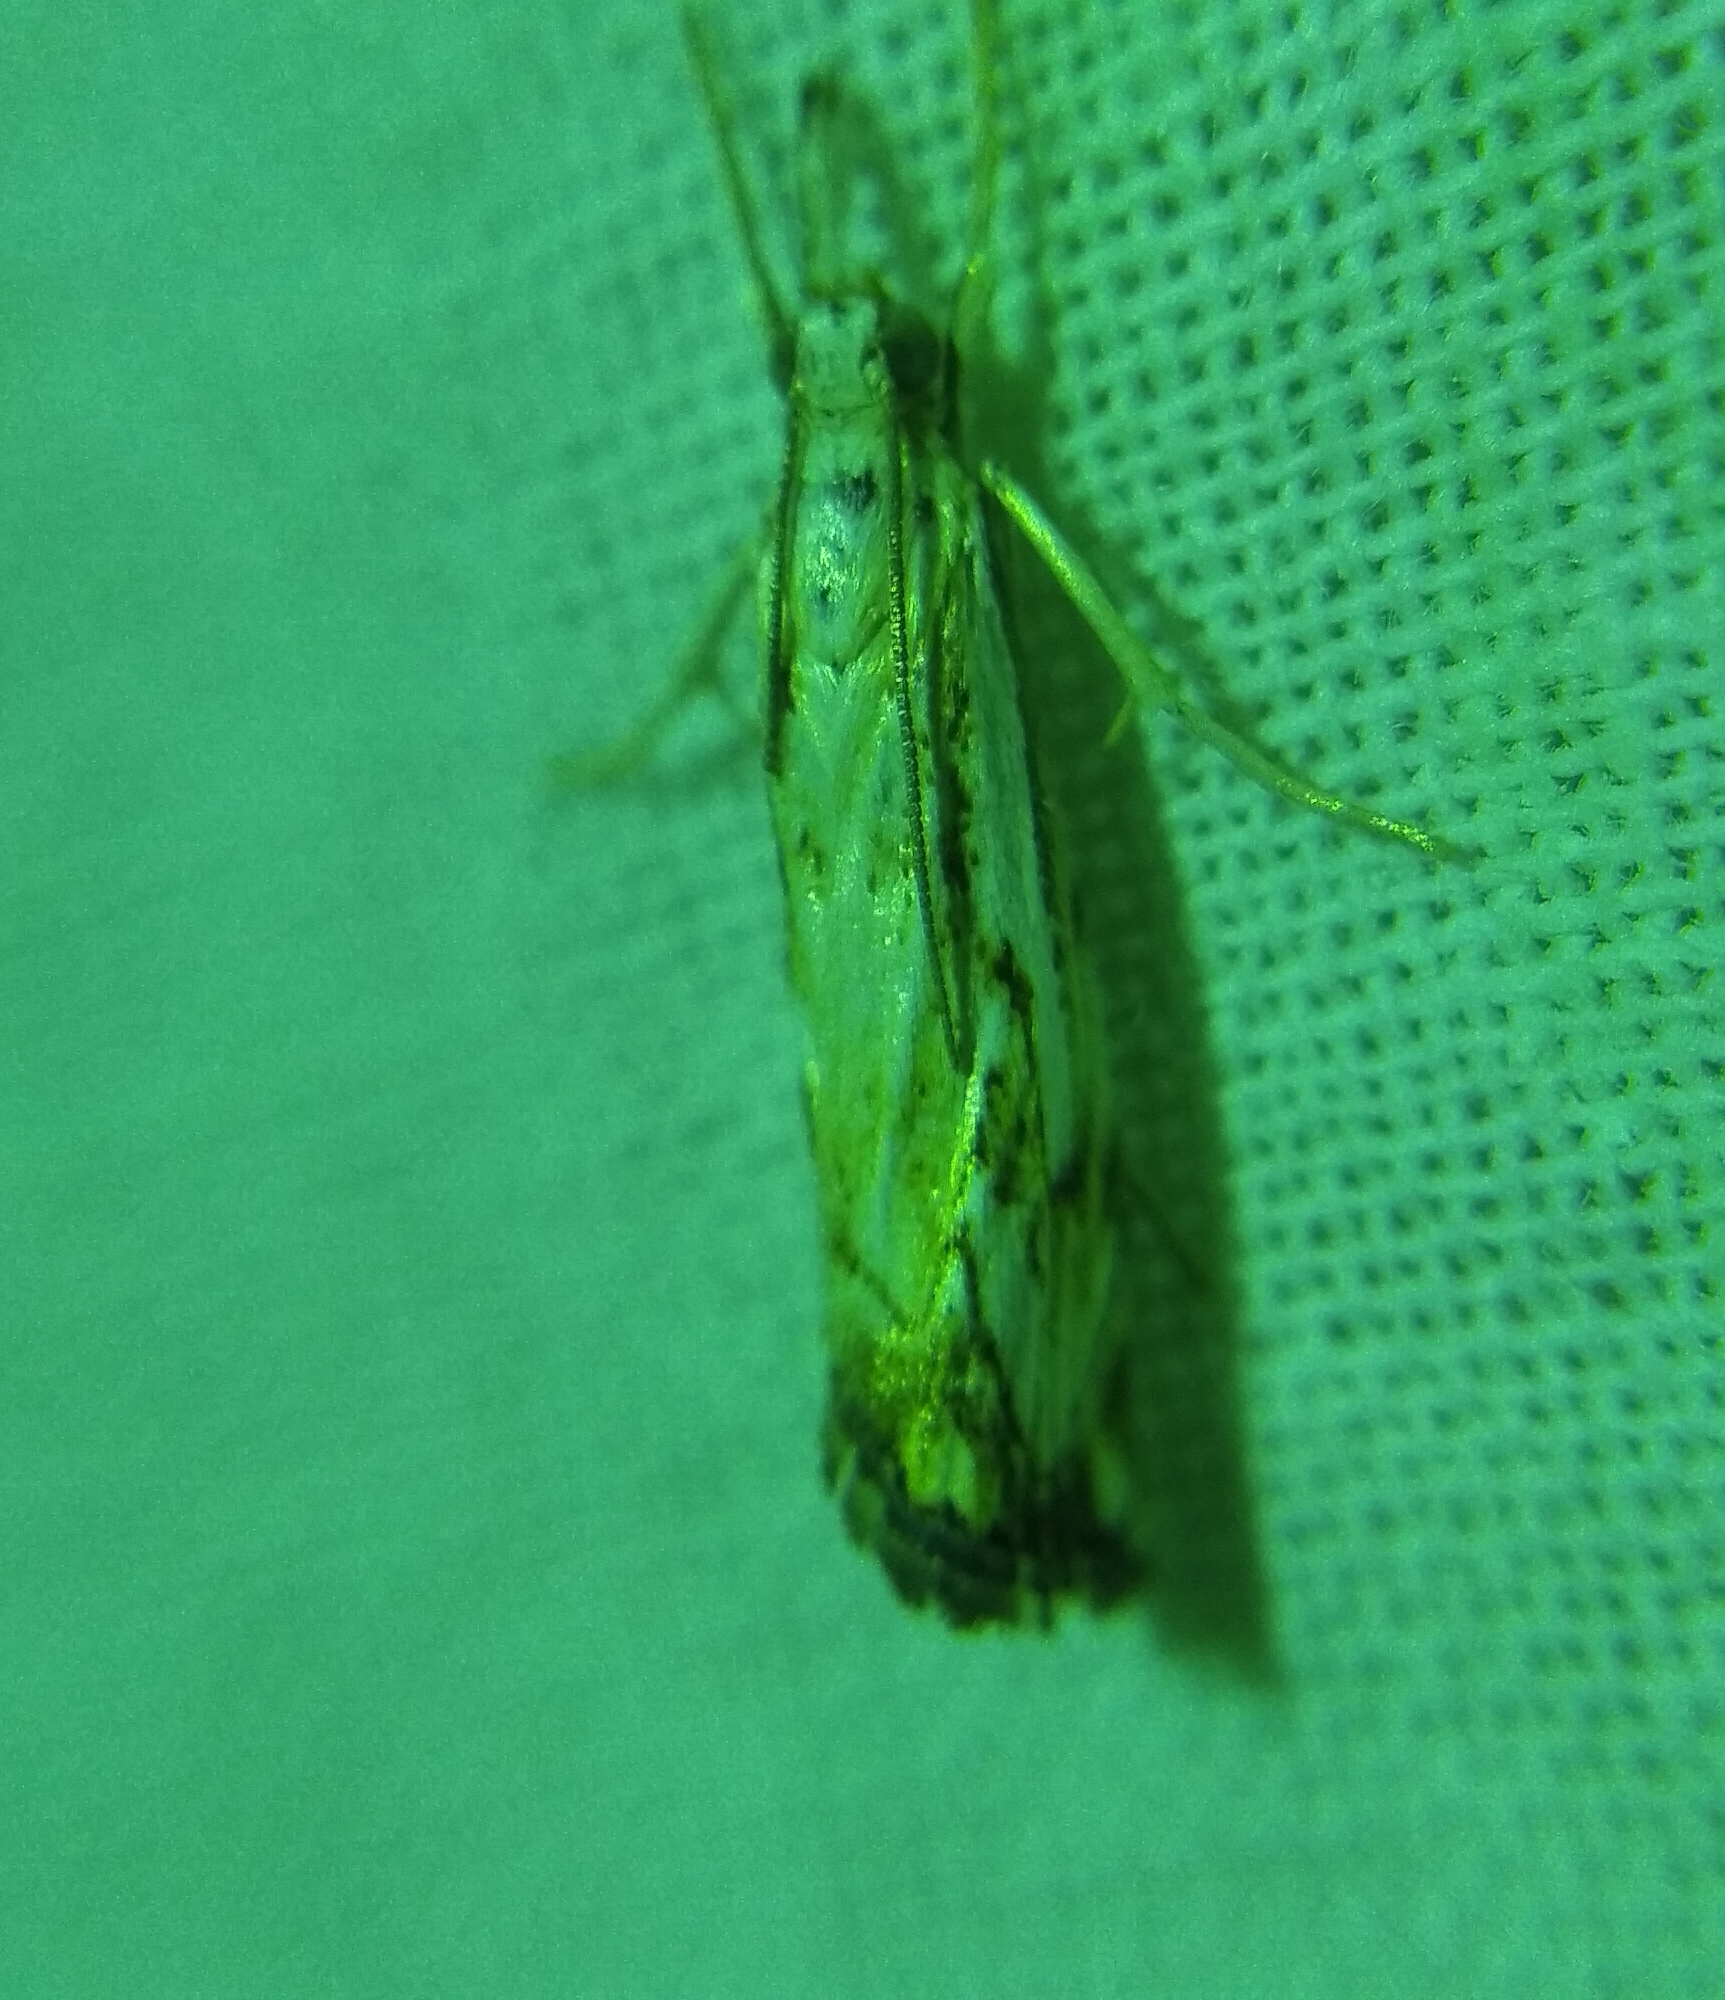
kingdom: Animalia
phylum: Arthropoda
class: Insecta
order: Lepidoptera
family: Crambidae
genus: Catoptria
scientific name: Catoptria falsella
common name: Chequered grass-veneer
